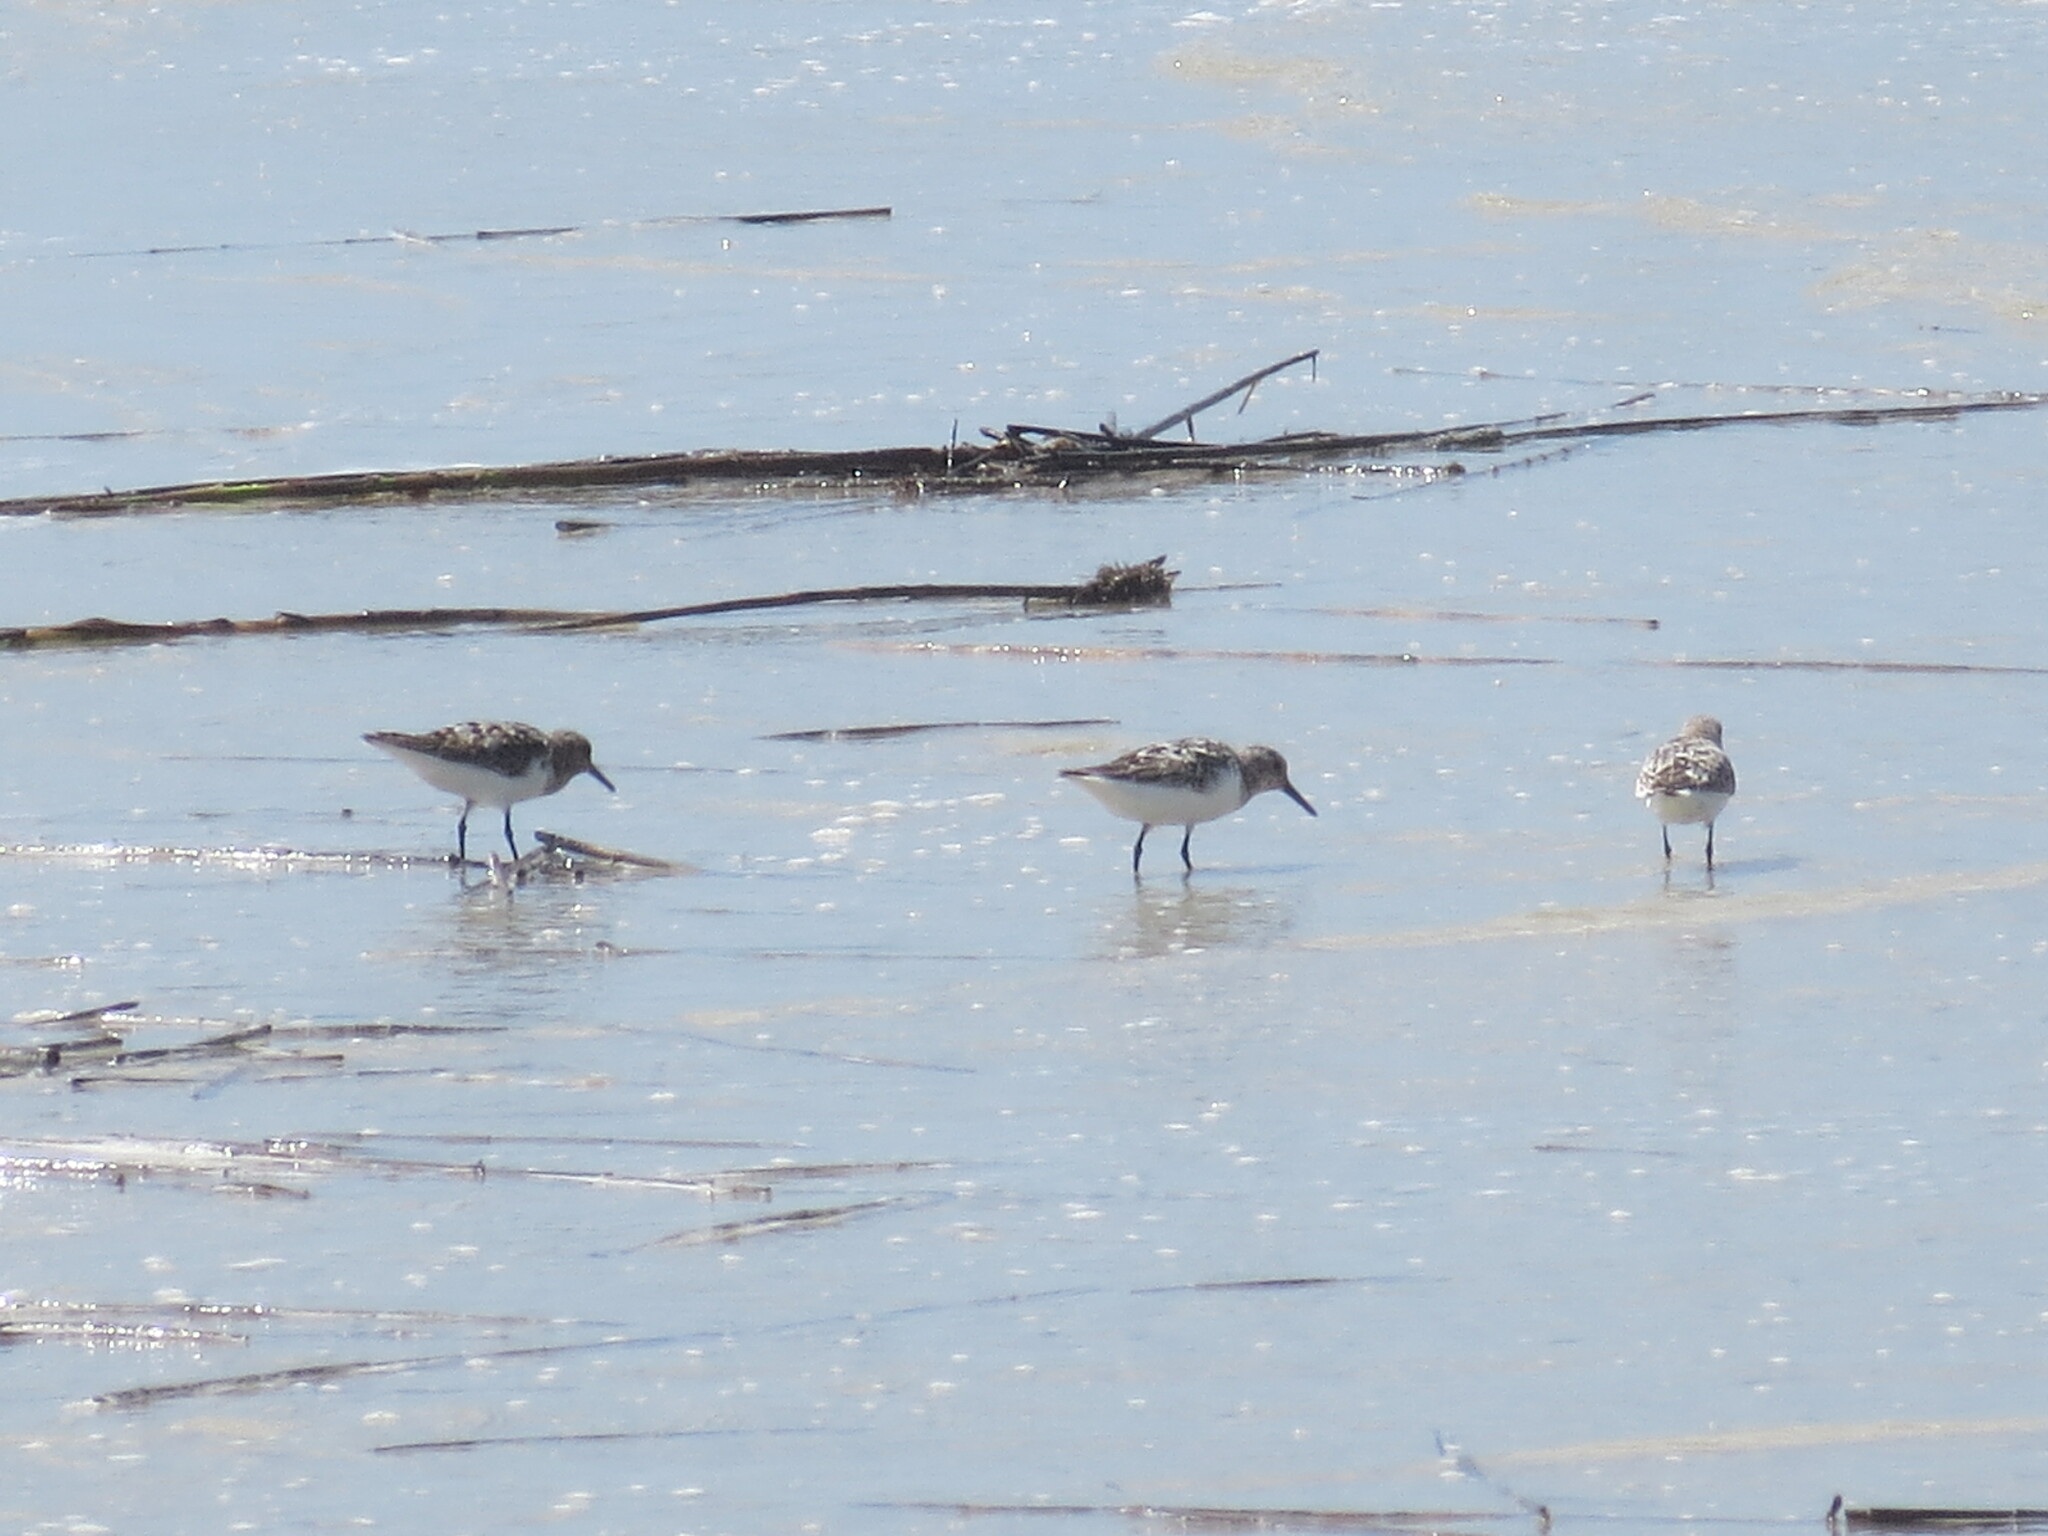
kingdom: Animalia
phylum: Chordata
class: Aves
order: Charadriiformes
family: Scolopacidae
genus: Calidris
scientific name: Calidris alba
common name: Sanderling
